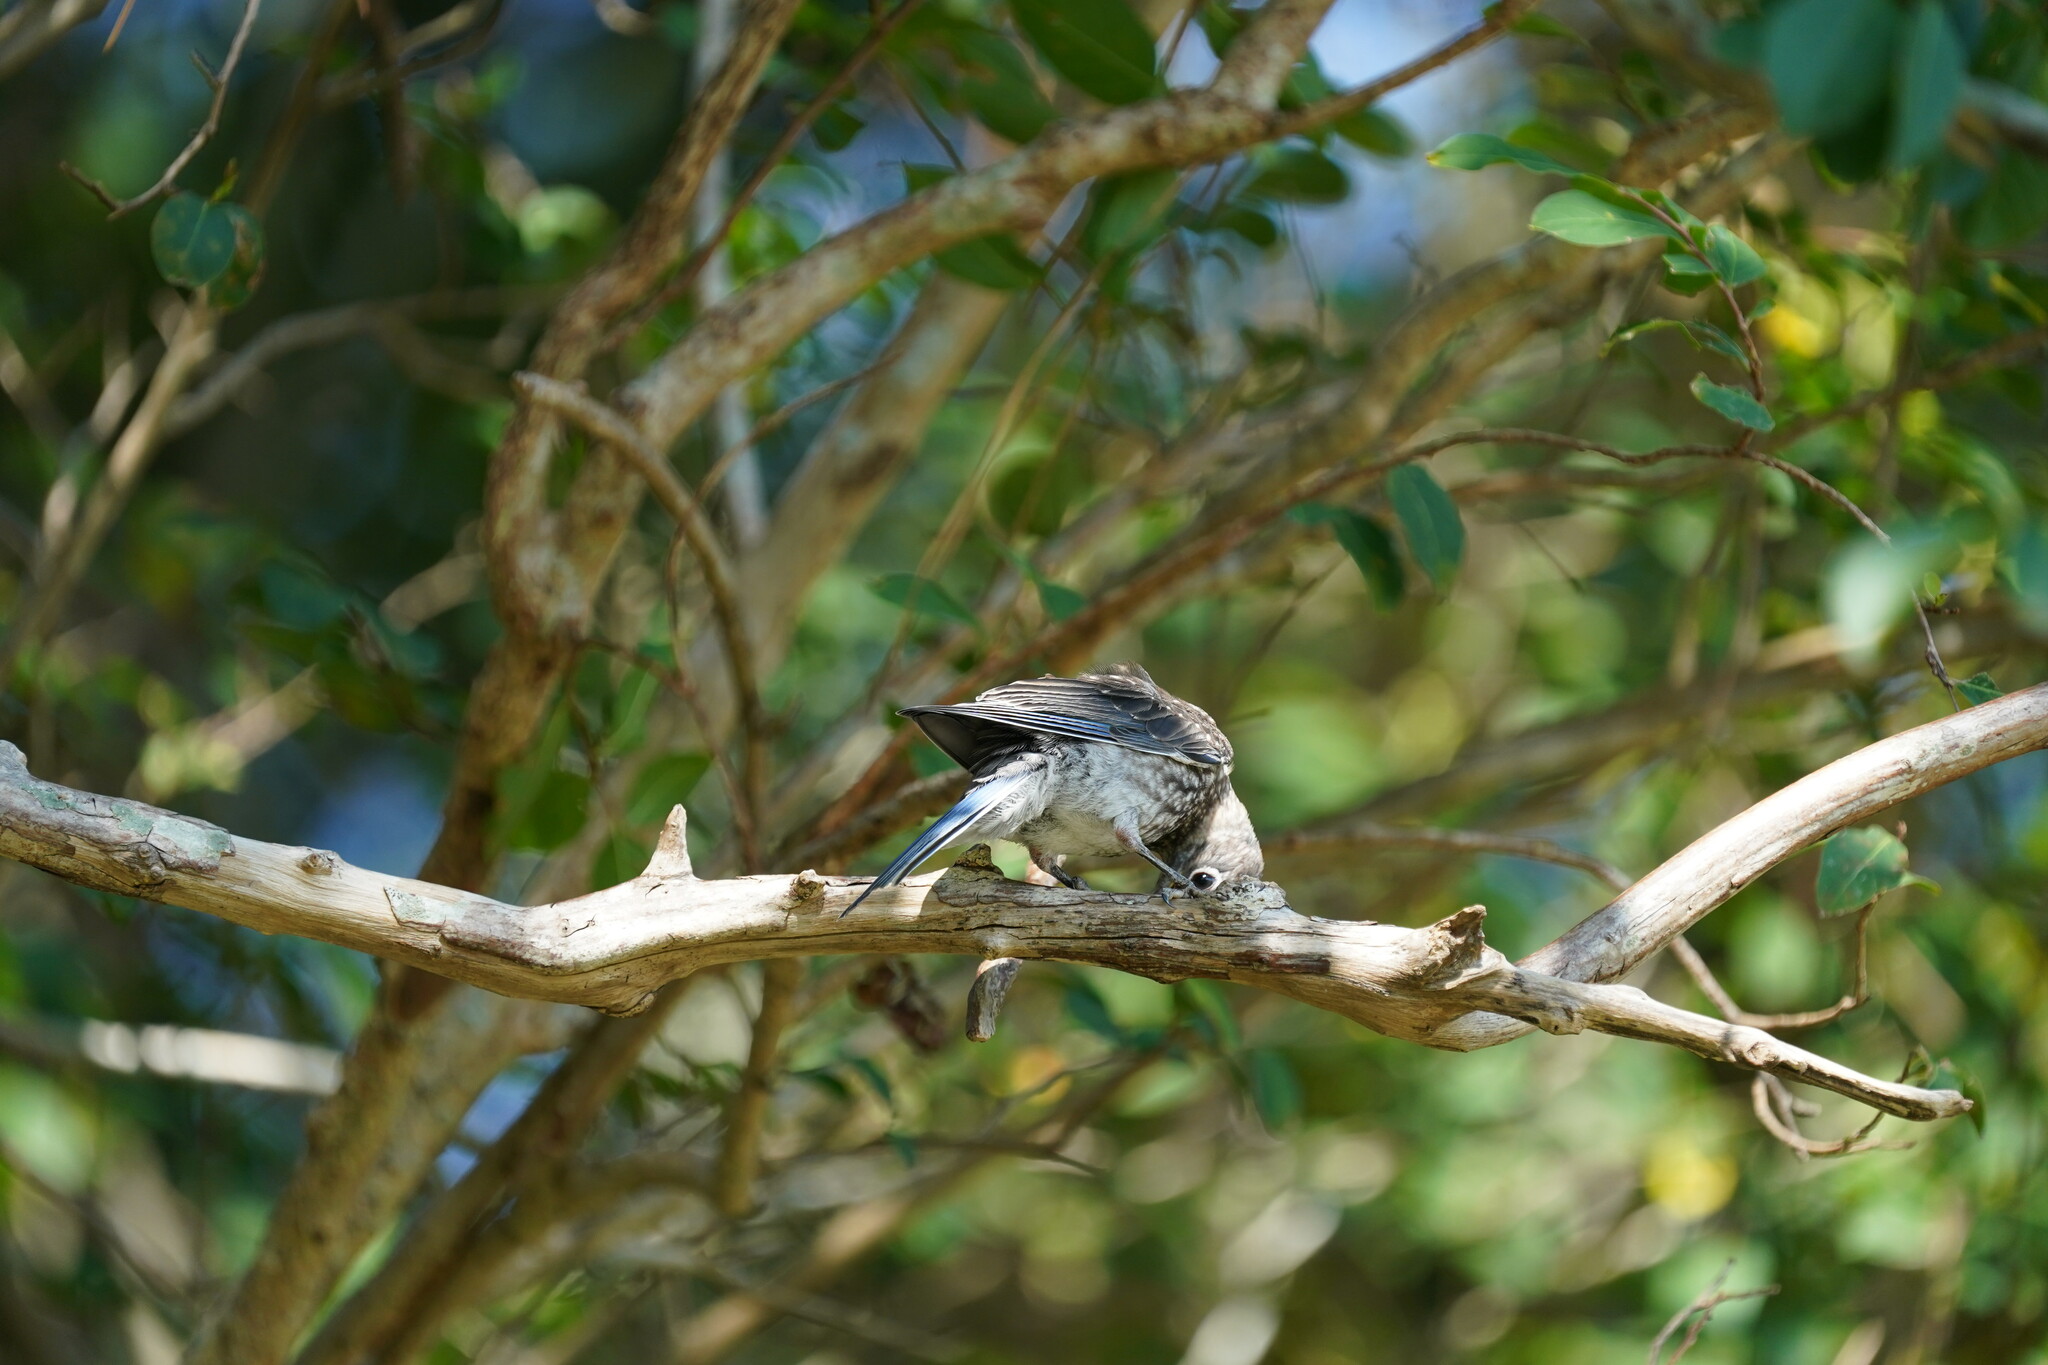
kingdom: Animalia
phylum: Chordata
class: Aves
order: Passeriformes
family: Turdidae
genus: Sialia
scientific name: Sialia sialis
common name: Eastern bluebird
